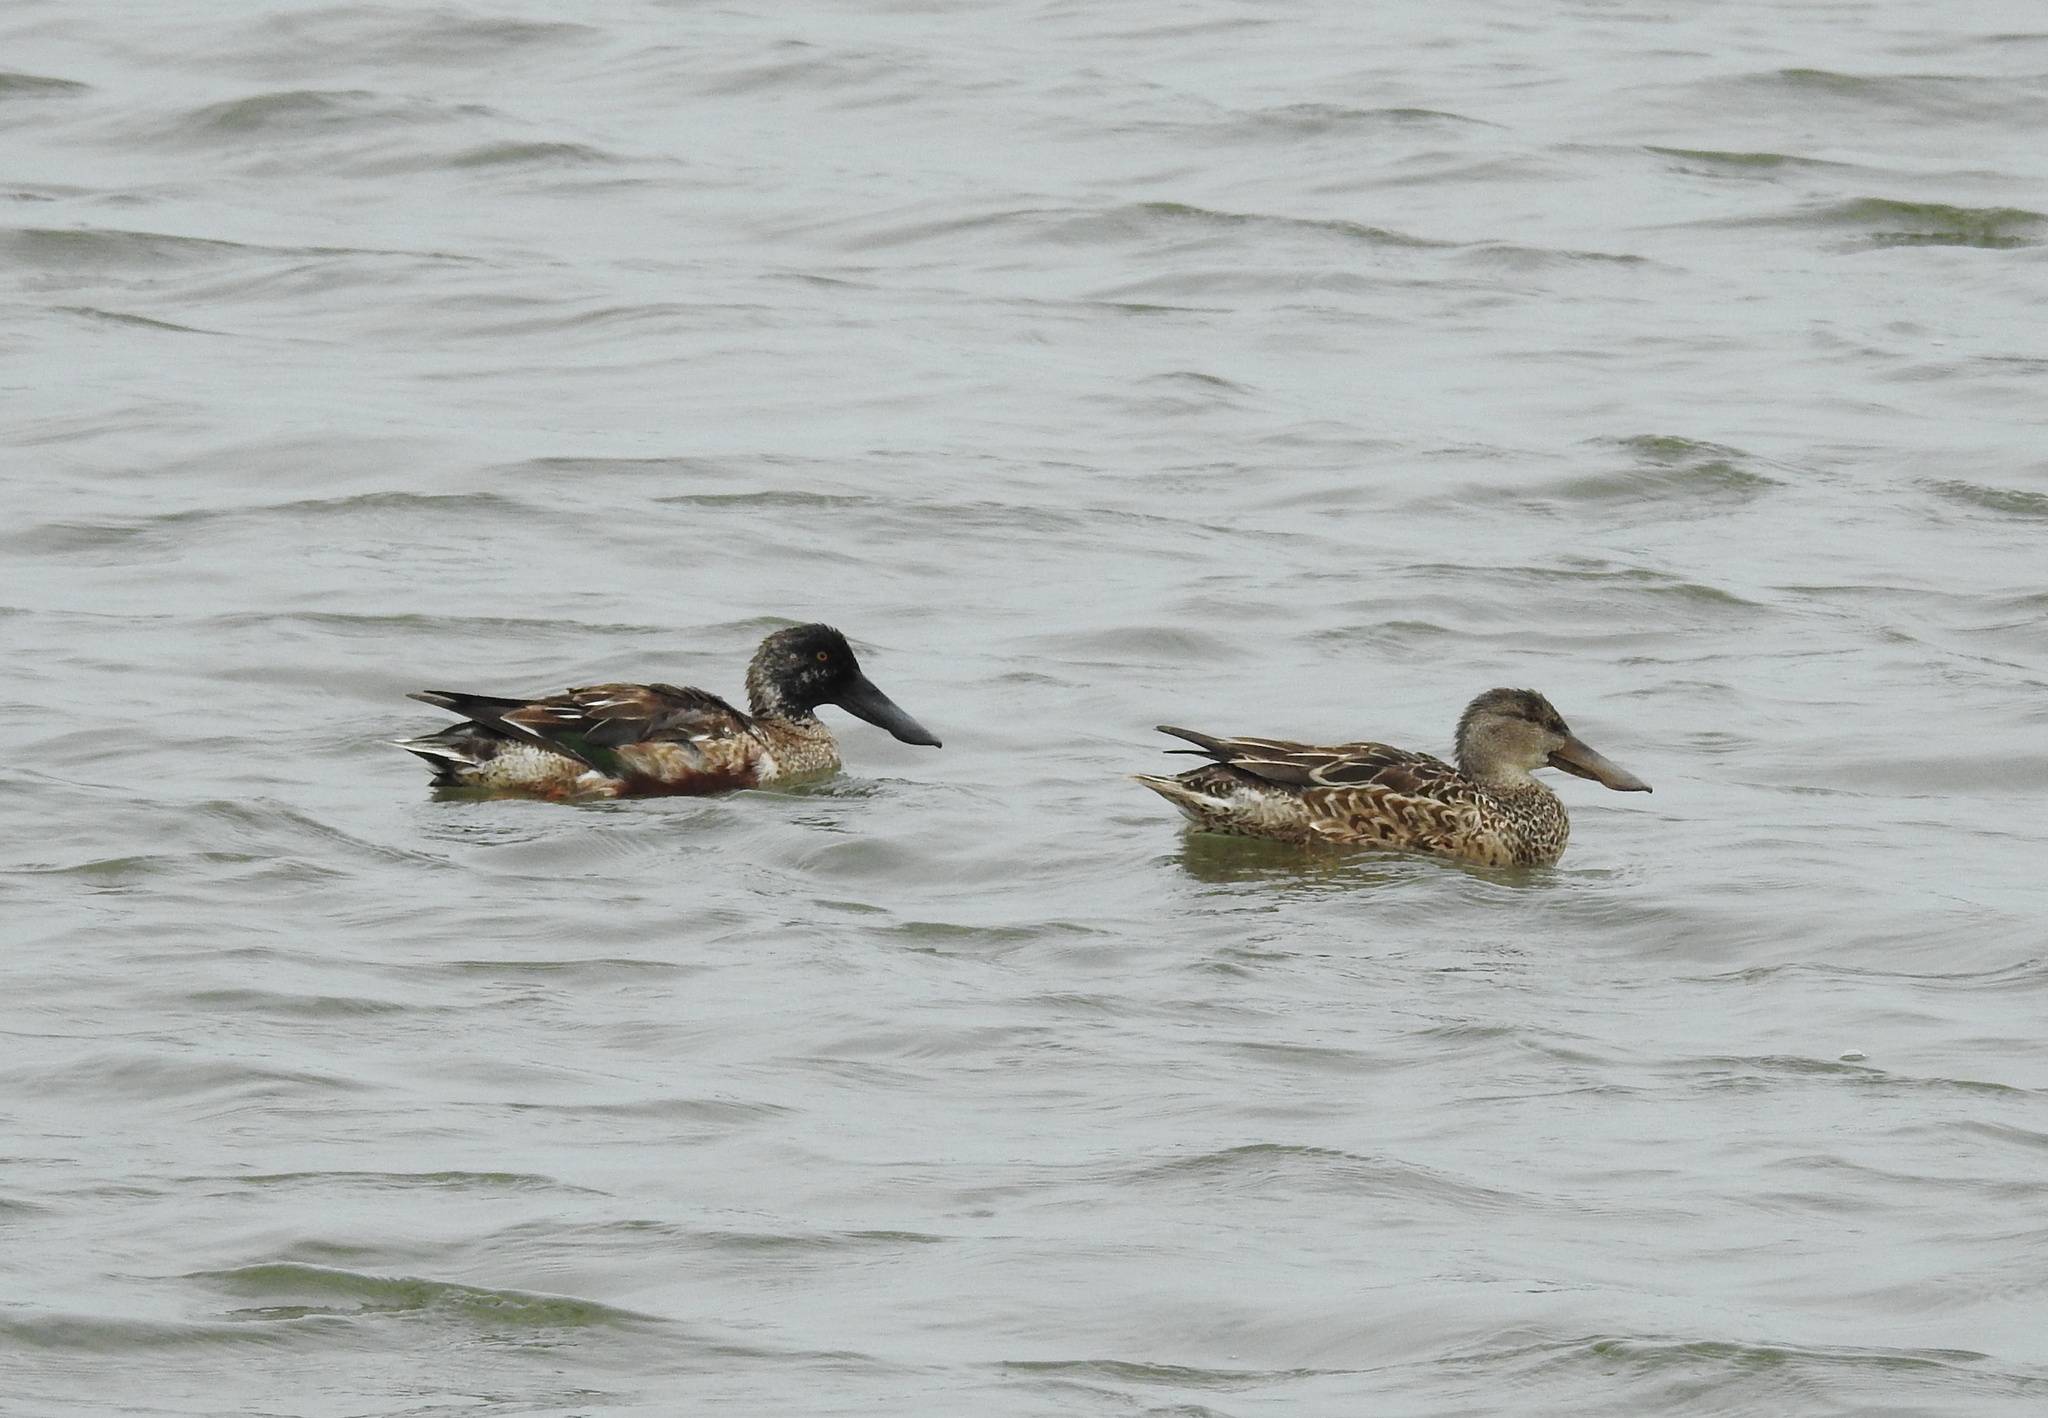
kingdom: Animalia
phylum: Chordata
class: Aves
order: Anseriformes
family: Anatidae
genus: Spatula
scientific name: Spatula clypeata
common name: Northern shoveler
